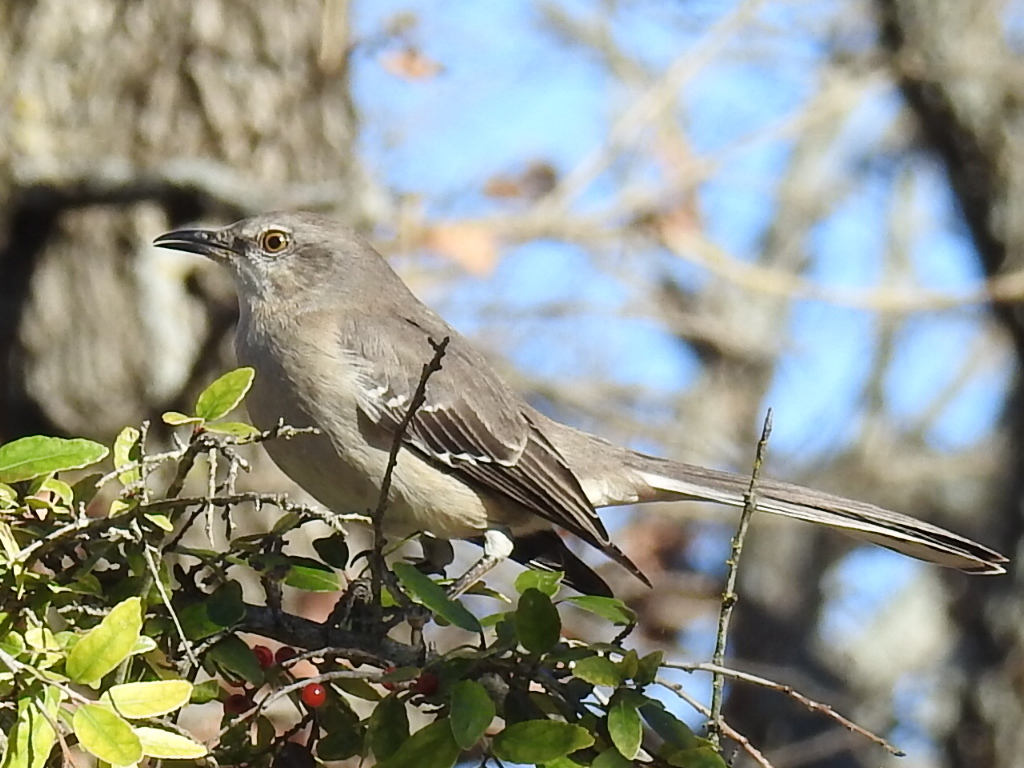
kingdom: Animalia
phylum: Chordata
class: Aves
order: Passeriformes
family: Mimidae
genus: Mimus
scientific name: Mimus polyglottos
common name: Northern mockingbird
